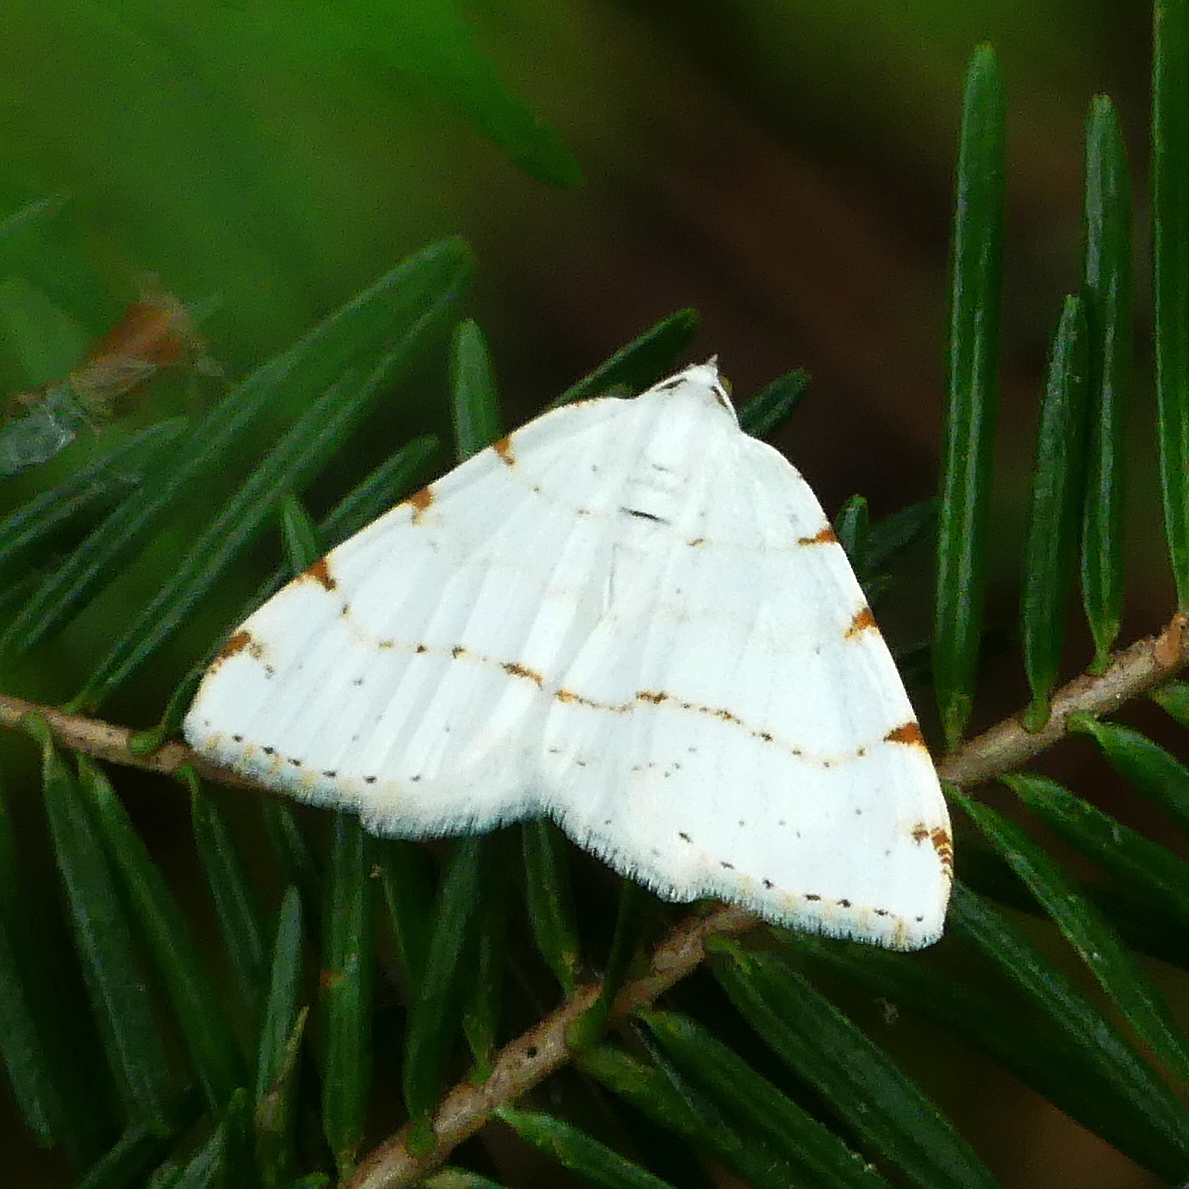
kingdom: Animalia
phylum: Arthropoda
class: Insecta
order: Lepidoptera
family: Geometridae
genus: Macaria
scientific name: Macaria pustularia
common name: Lesser maple spanworm moth
